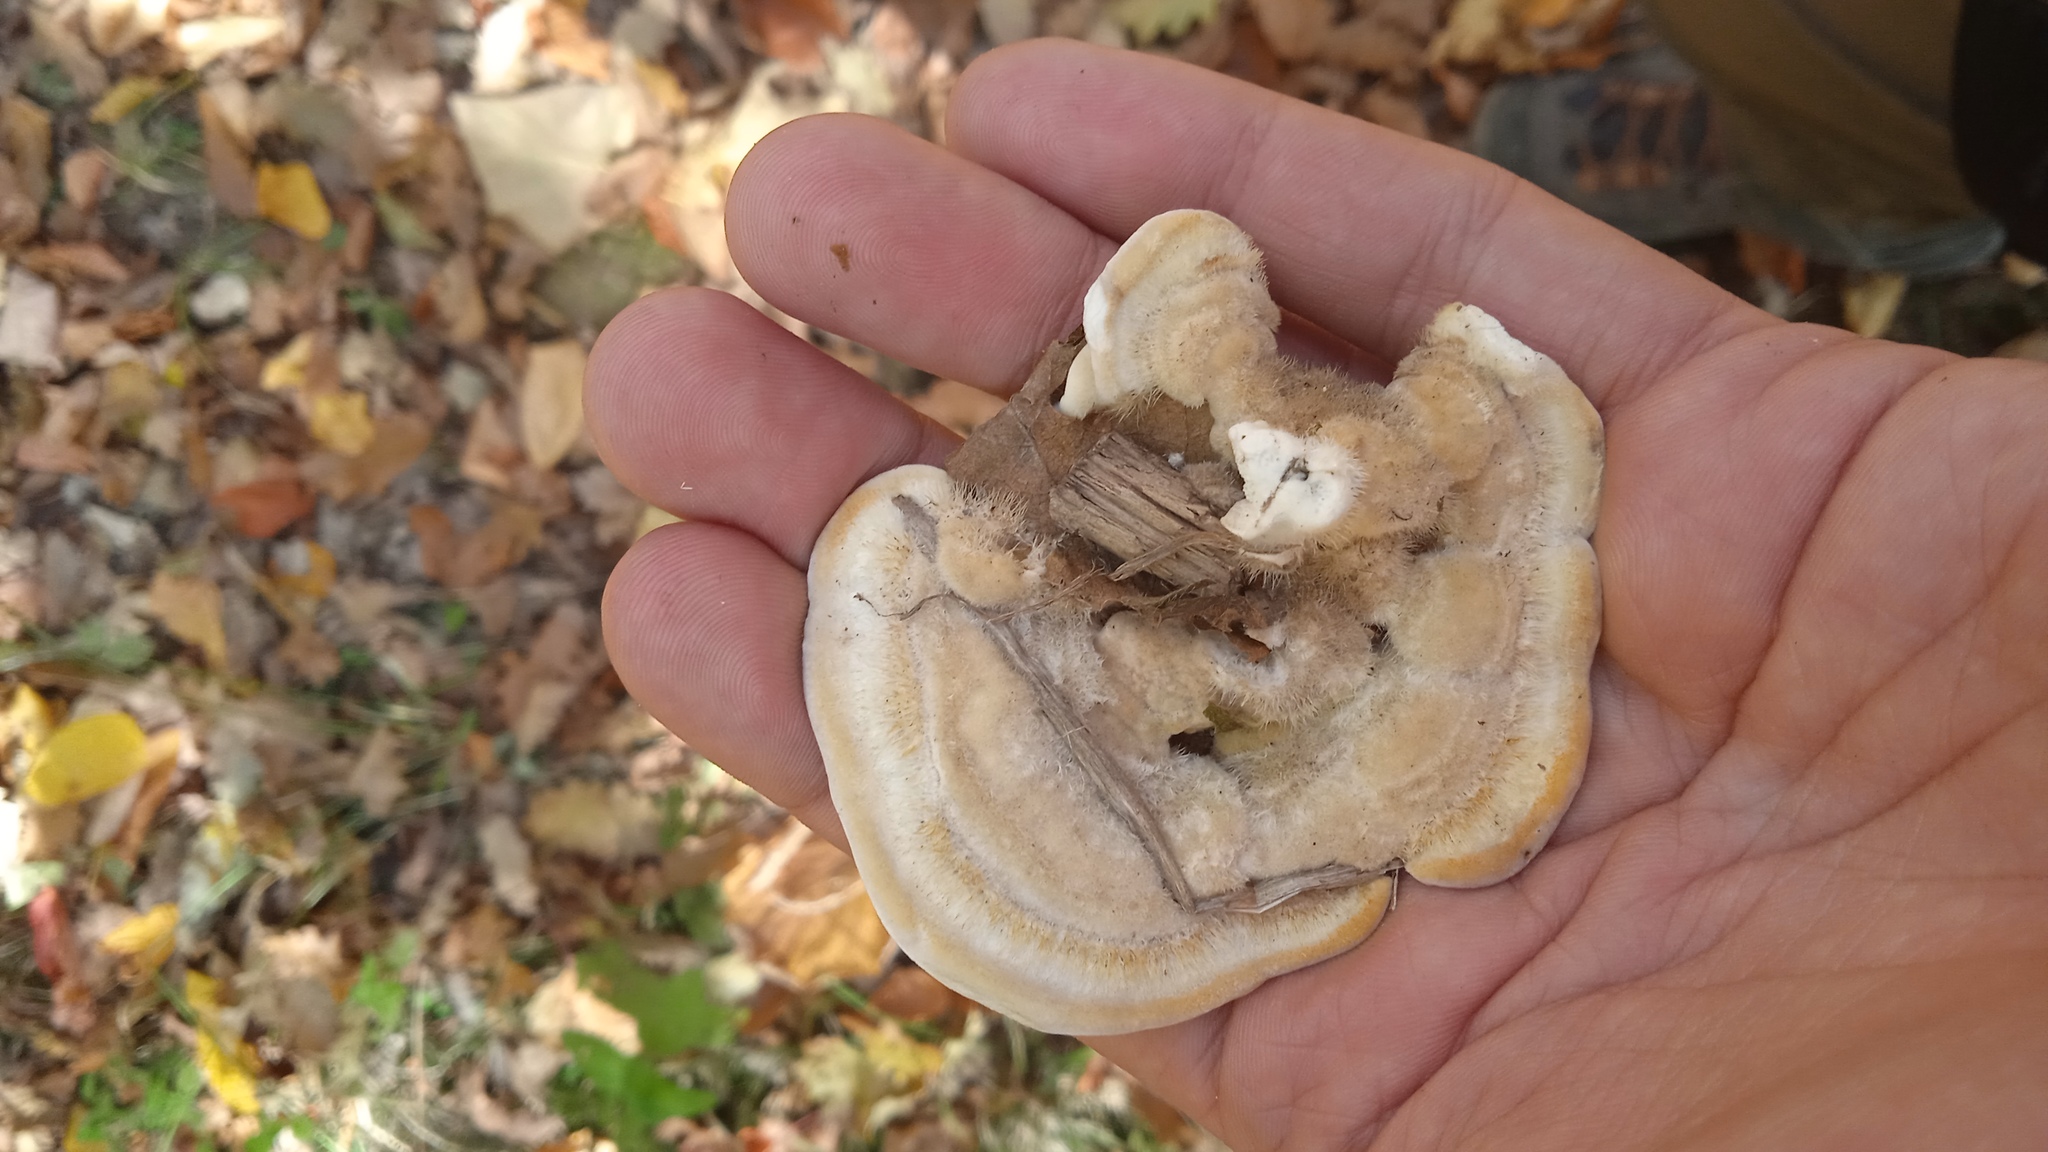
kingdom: Fungi
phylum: Basidiomycota
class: Agaricomycetes
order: Polyporales
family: Polyporaceae
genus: Trametes
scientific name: Trametes hirsuta
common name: Hairy bracket
